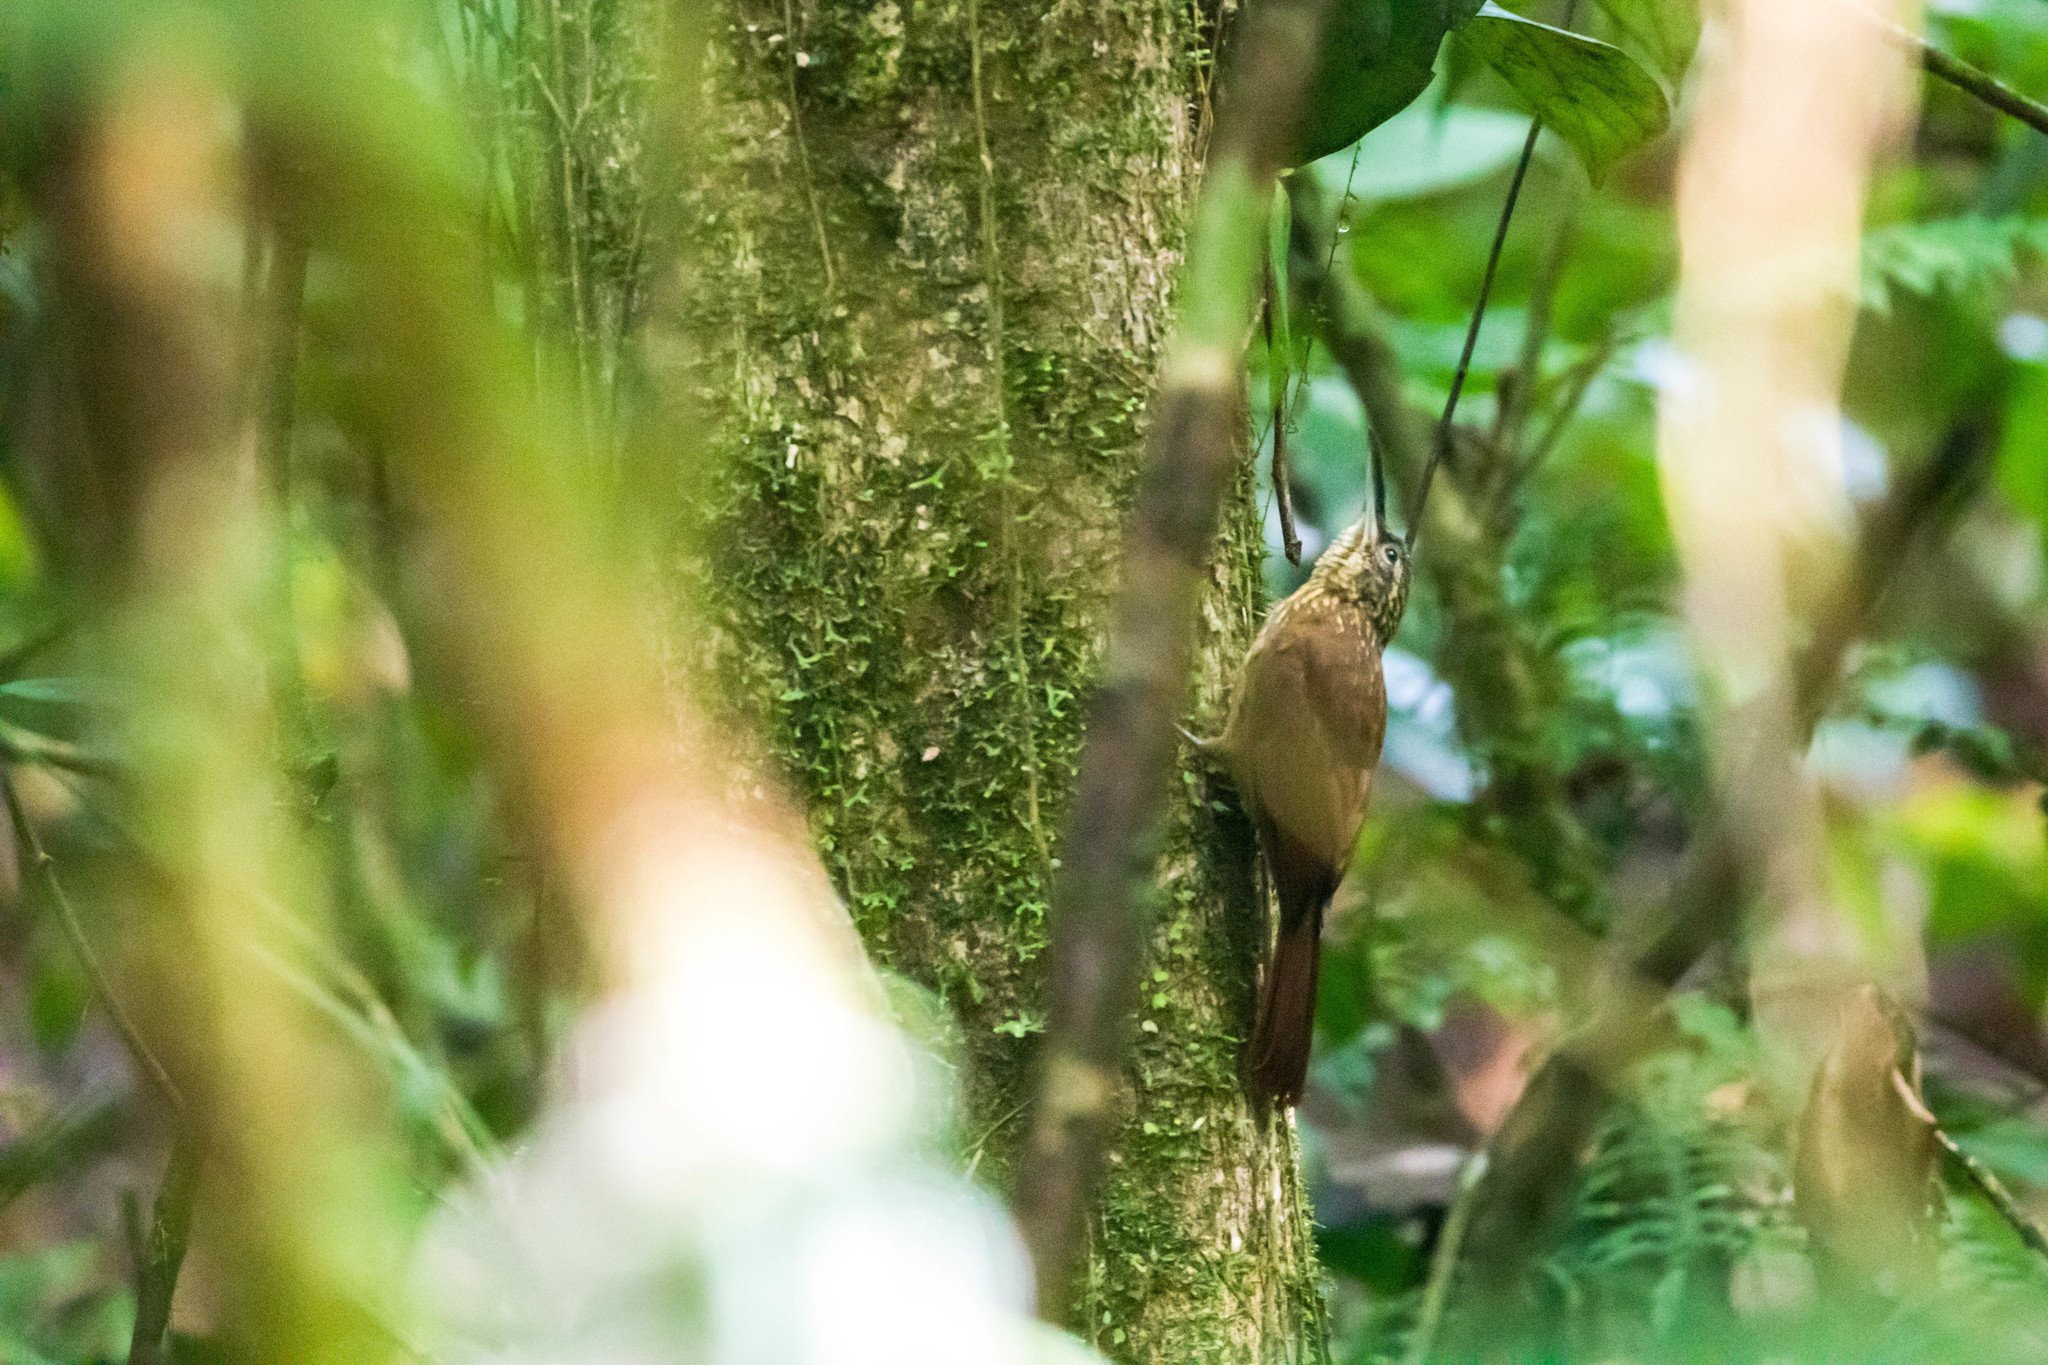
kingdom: Animalia
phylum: Chordata
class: Aves
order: Passeriformes
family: Furnariidae
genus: Xiphorhynchus
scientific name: Xiphorhynchus susurrans
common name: Cocoa woodcreeper
